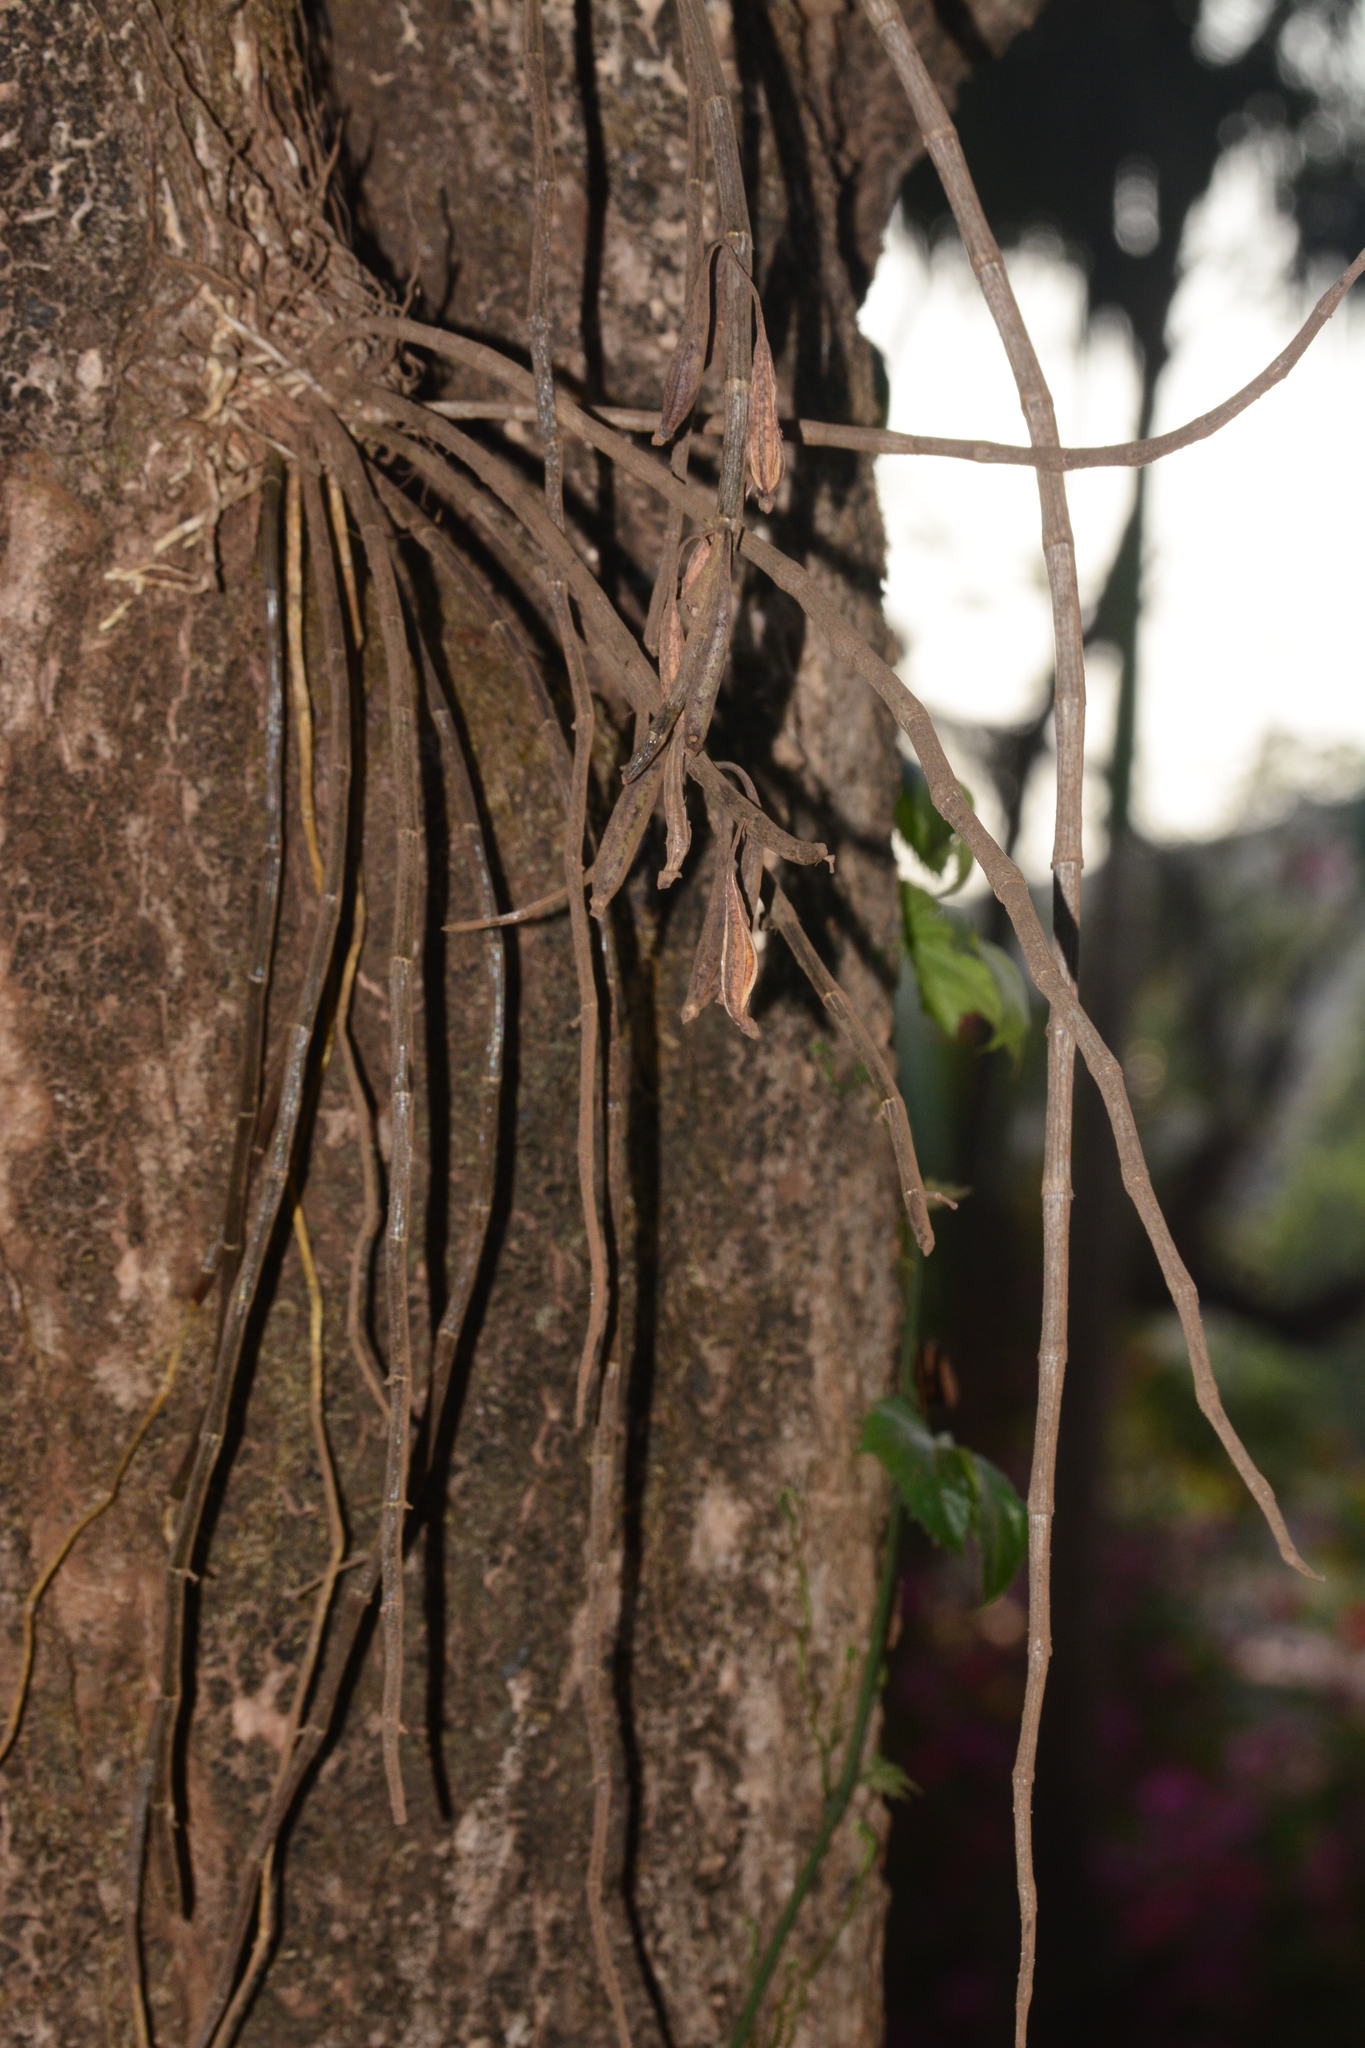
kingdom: Plantae
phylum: Tracheophyta
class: Liliopsida
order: Asparagales
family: Orchidaceae
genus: Dendrobium
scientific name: Dendrobium macrostachyum
